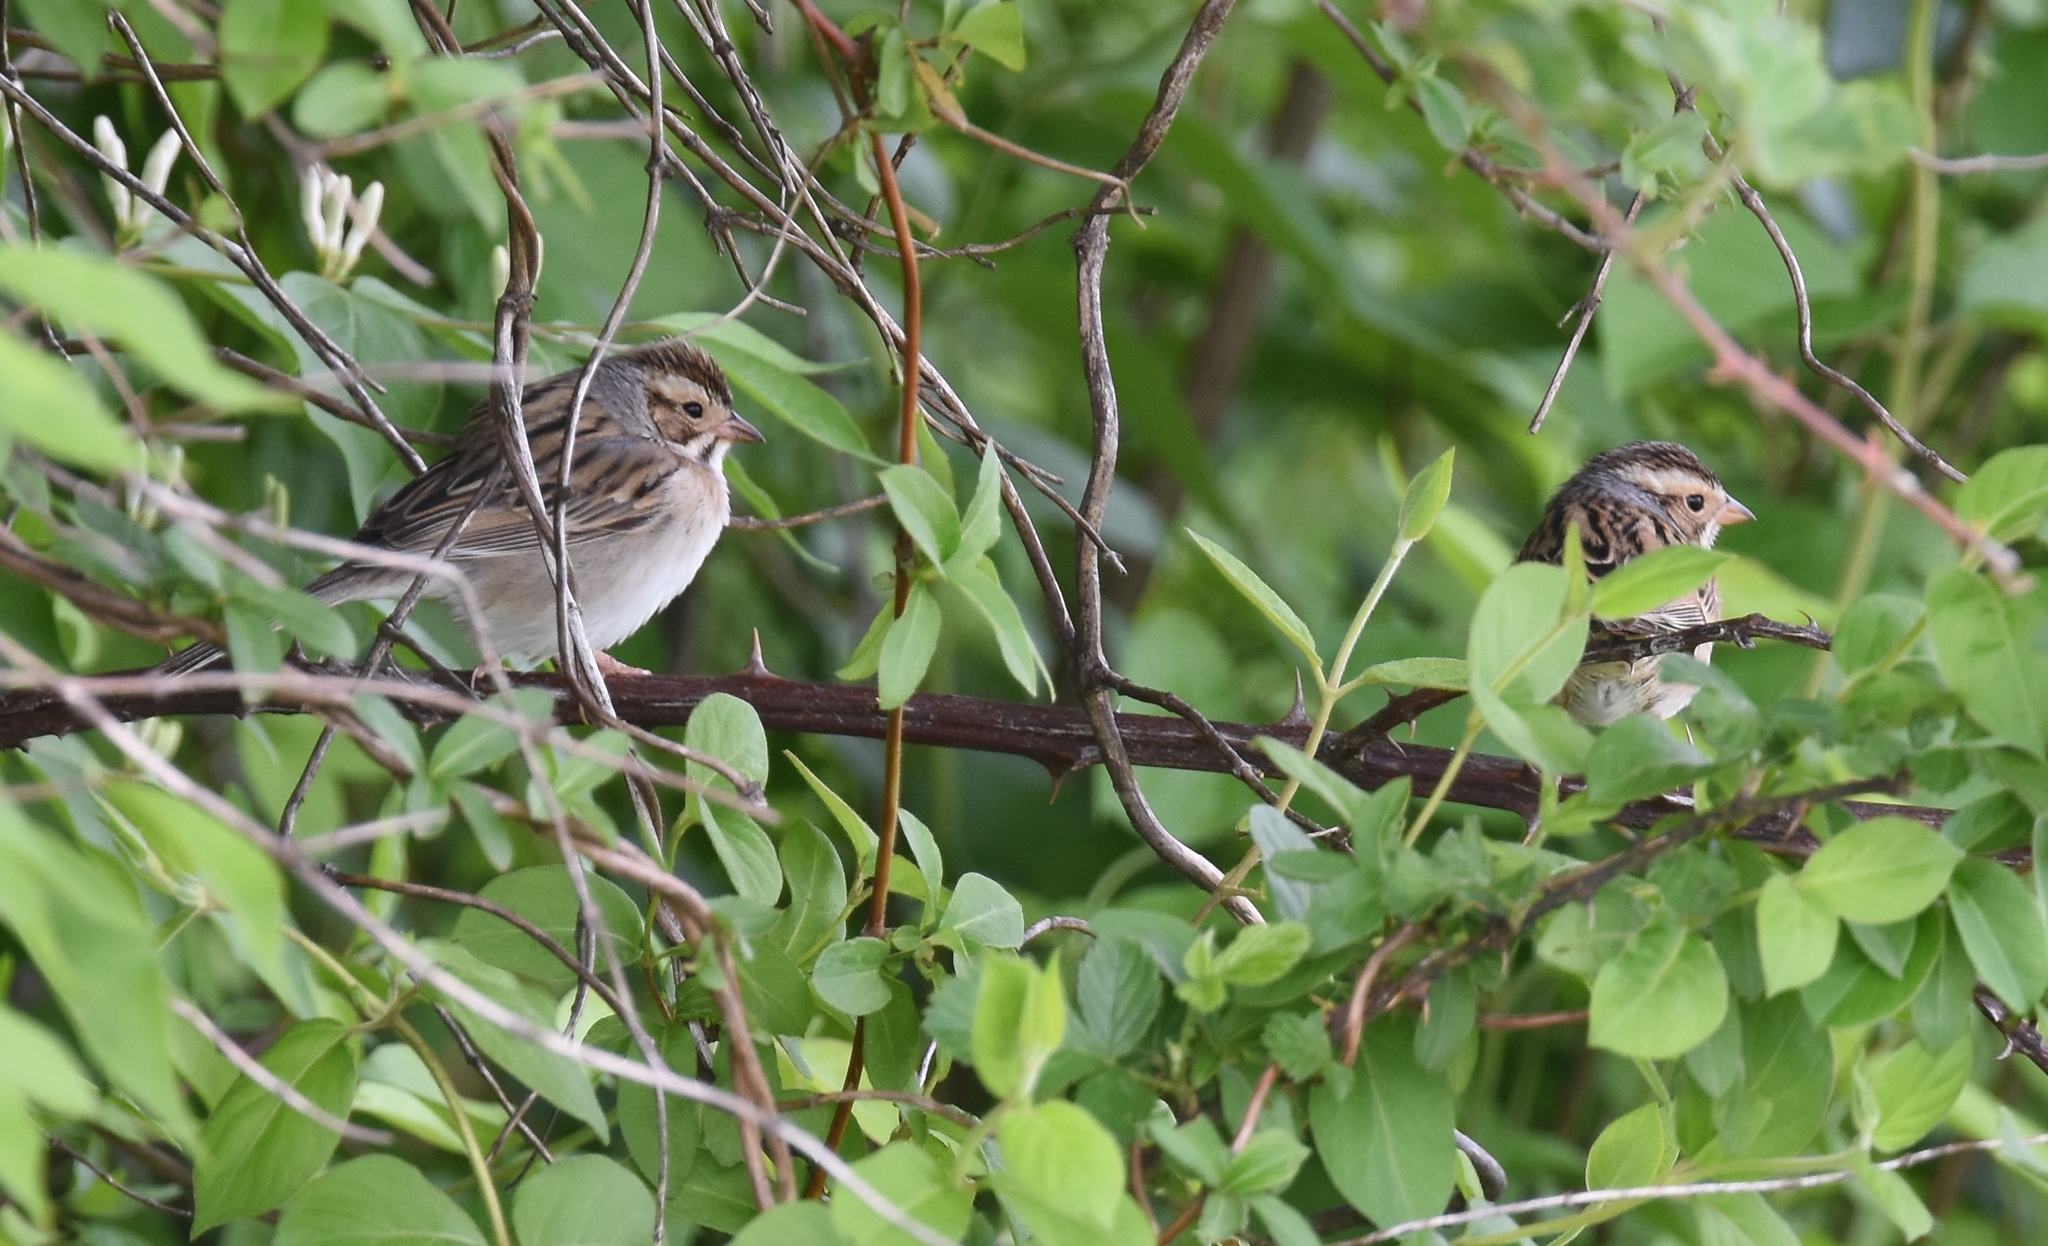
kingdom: Animalia
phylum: Chordata
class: Aves
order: Passeriformes
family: Passerellidae
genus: Spizella
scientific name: Spizella pallida
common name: Clay-colored sparrow
